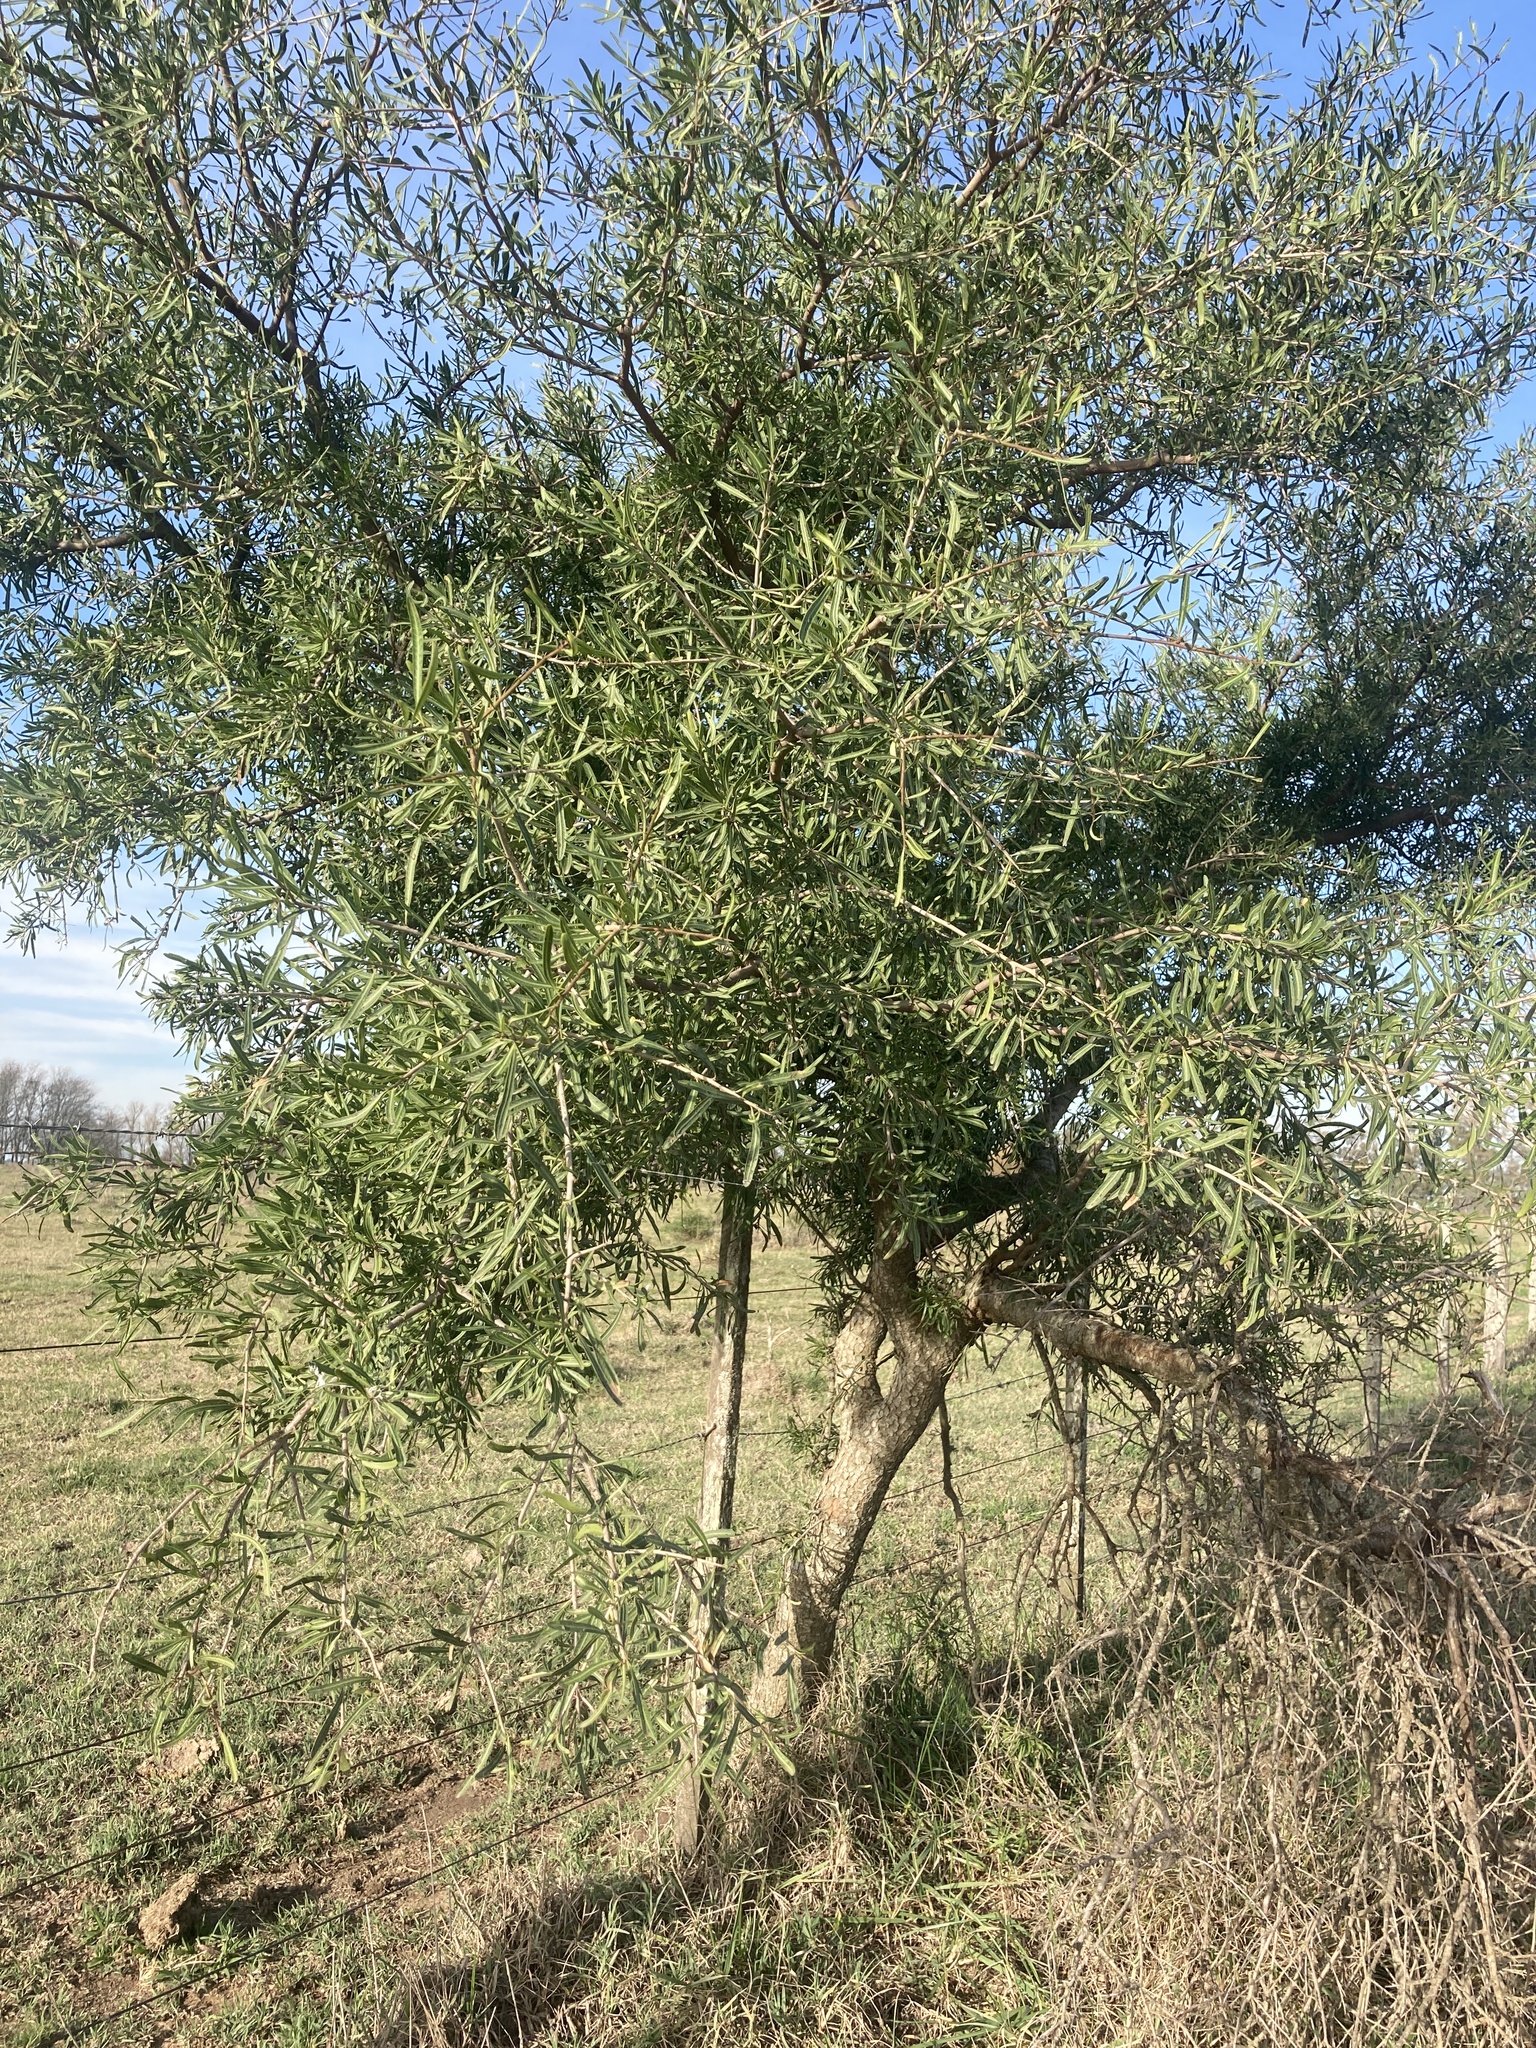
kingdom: Plantae
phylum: Tracheophyta
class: Magnoliopsida
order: Sapindales
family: Anacardiaceae
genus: Schinus
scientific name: Schinus longifolia
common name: Longleaf peppertree
